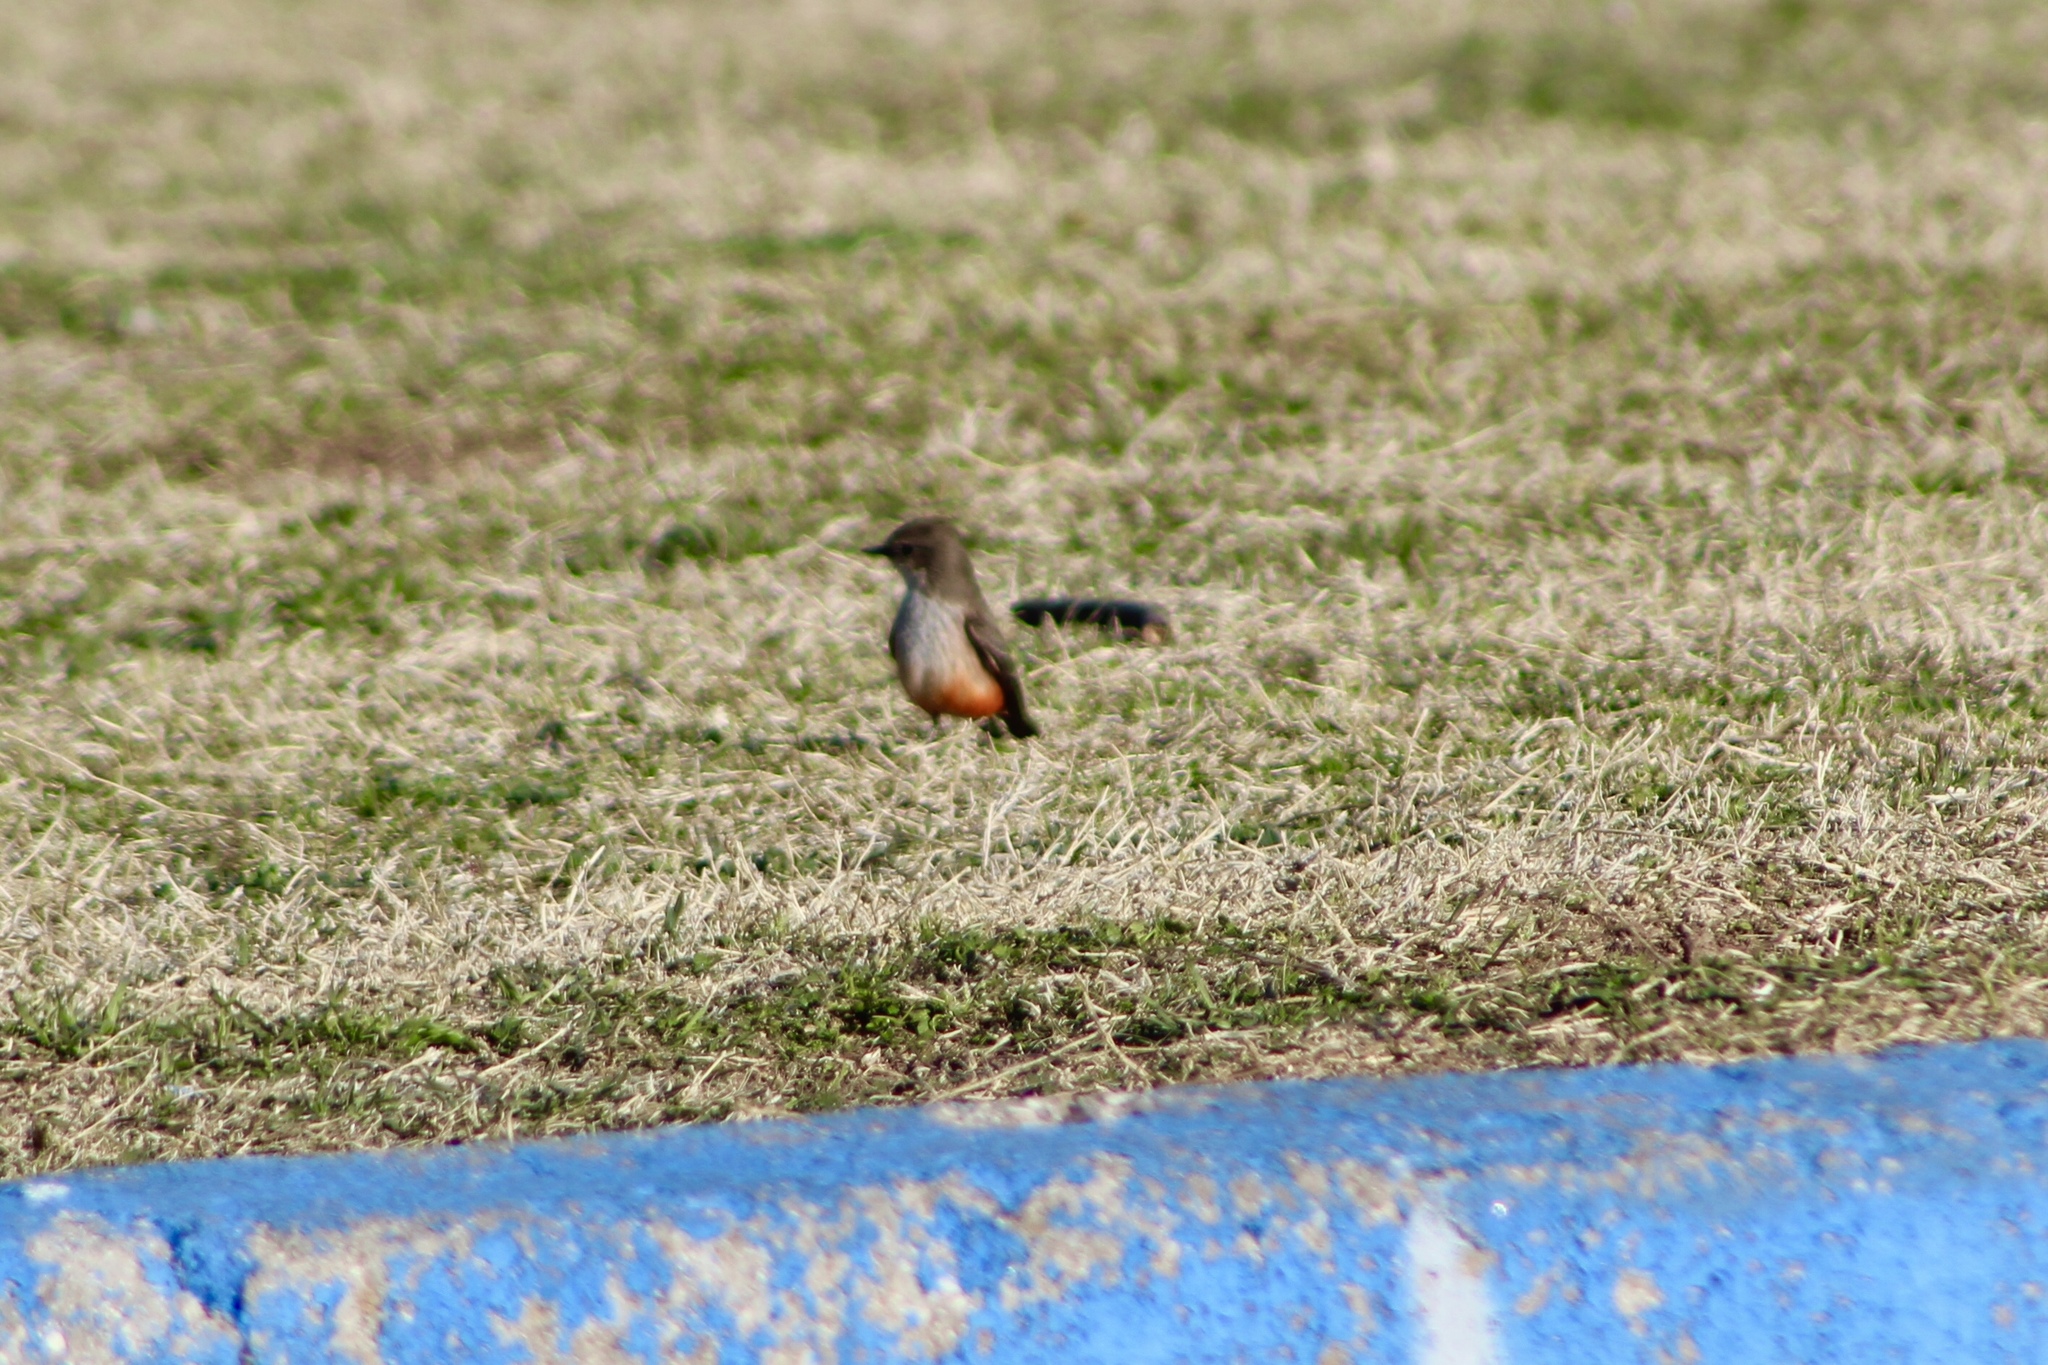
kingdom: Animalia
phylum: Chordata
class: Aves
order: Passeriformes
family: Tyrannidae
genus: Pyrocephalus
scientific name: Pyrocephalus rubinus
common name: Vermilion flycatcher
